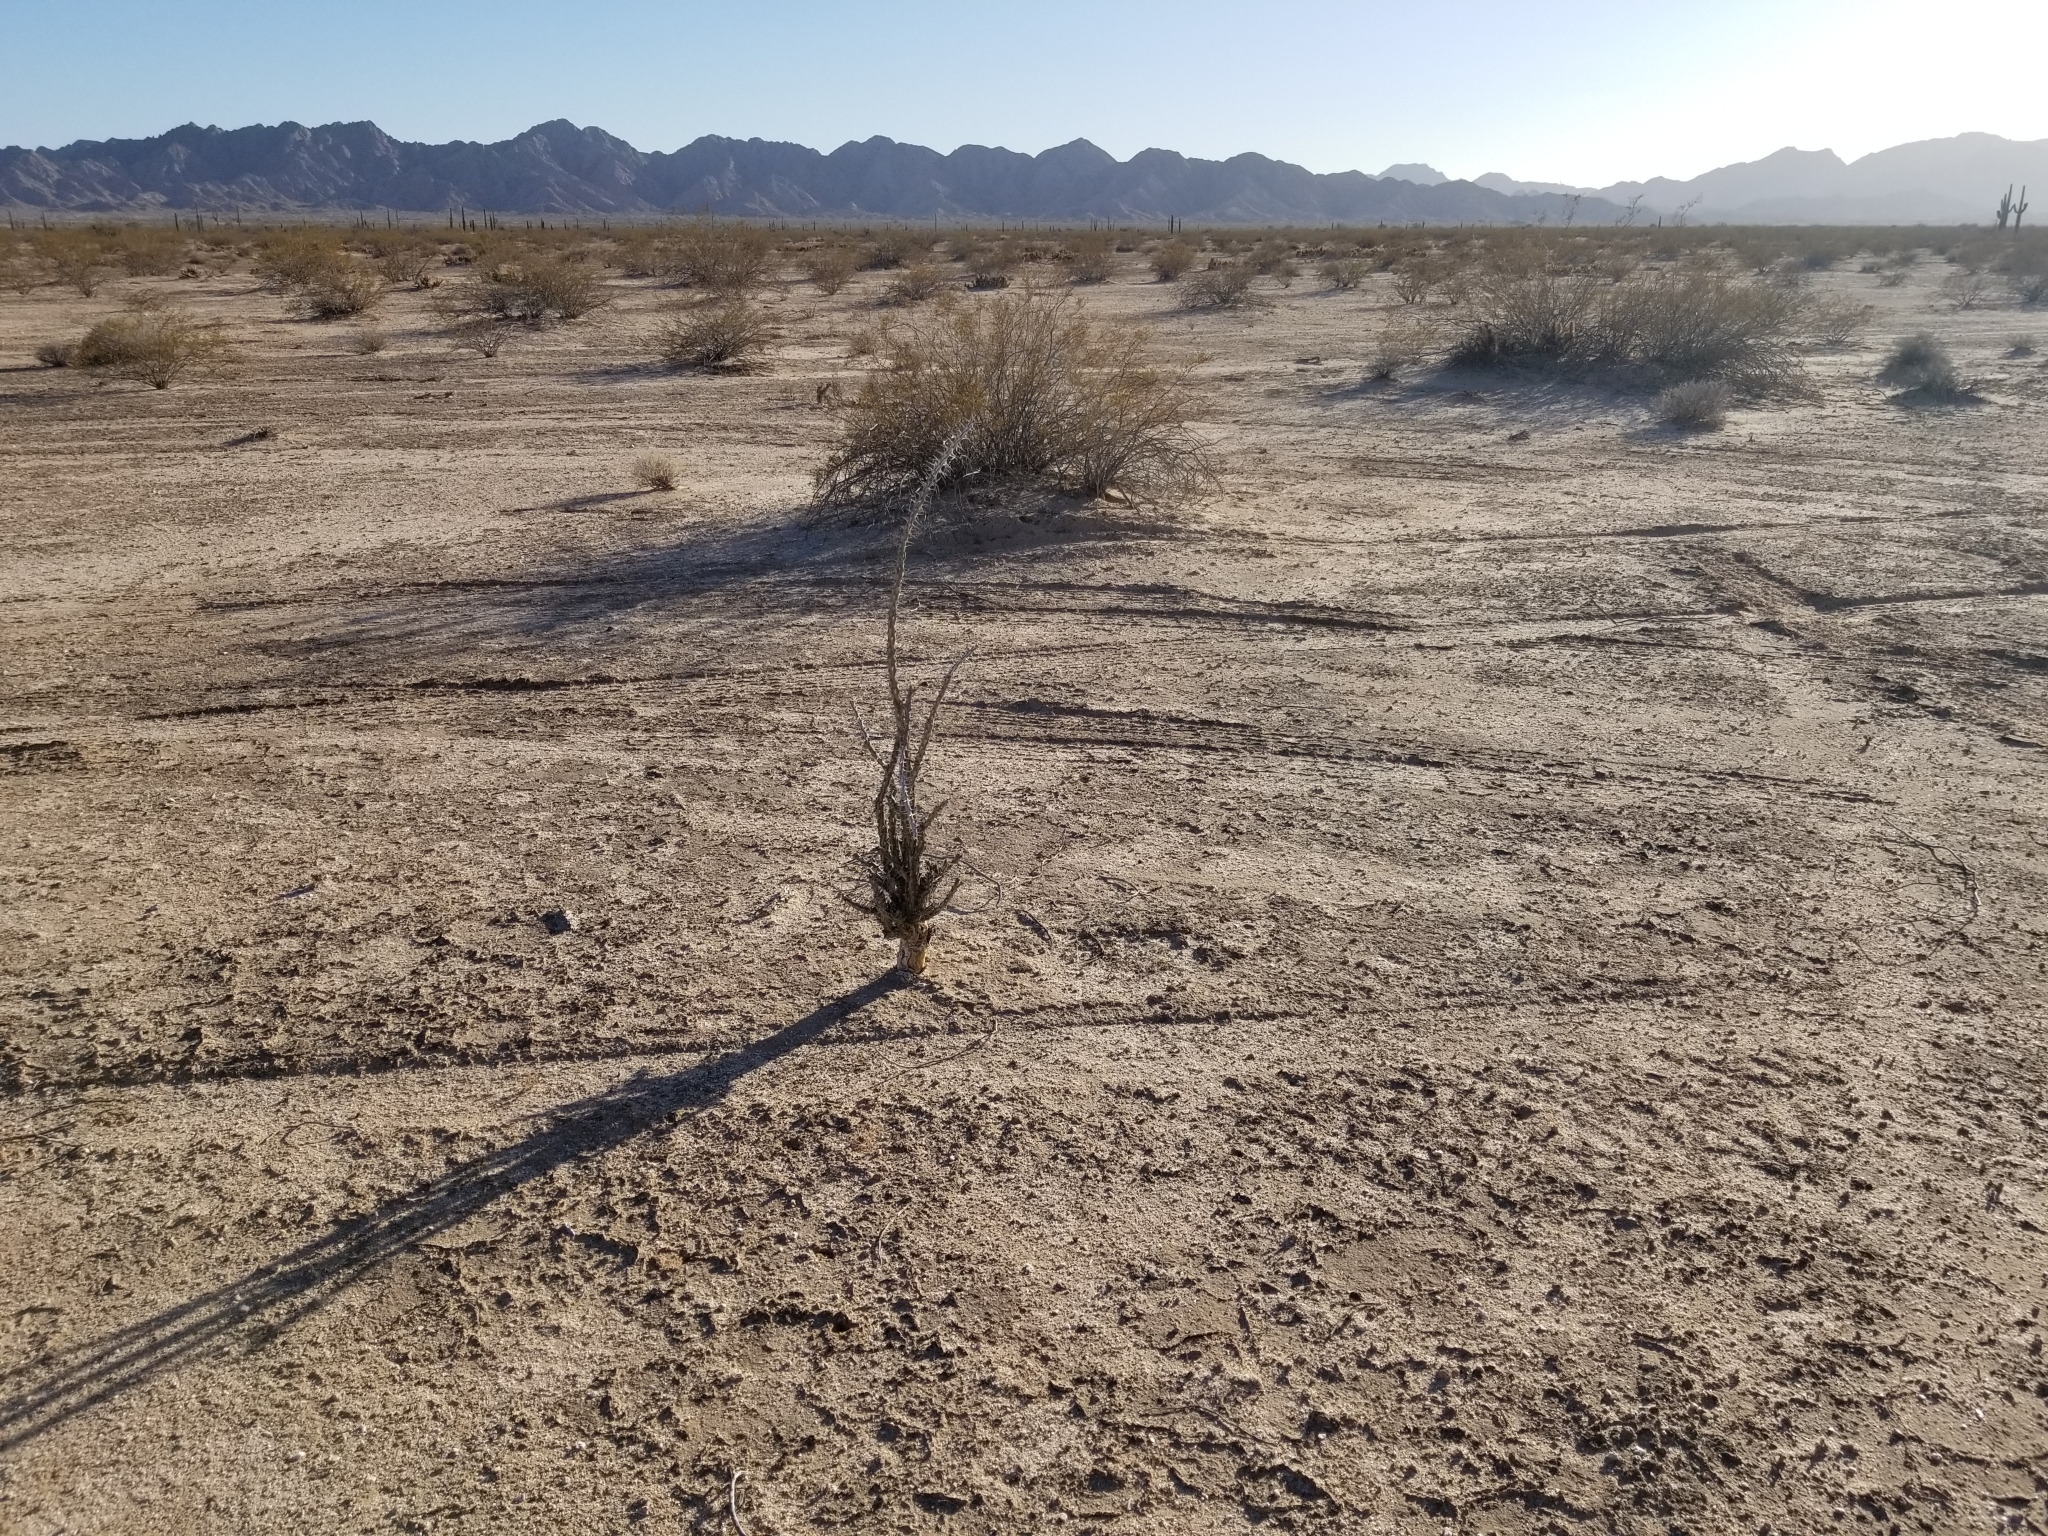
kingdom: Plantae
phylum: Tracheophyta
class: Magnoliopsida
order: Ericales
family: Fouquieriaceae
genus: Fouquieria
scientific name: Fouquieria splendens
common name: Vine-cactus
